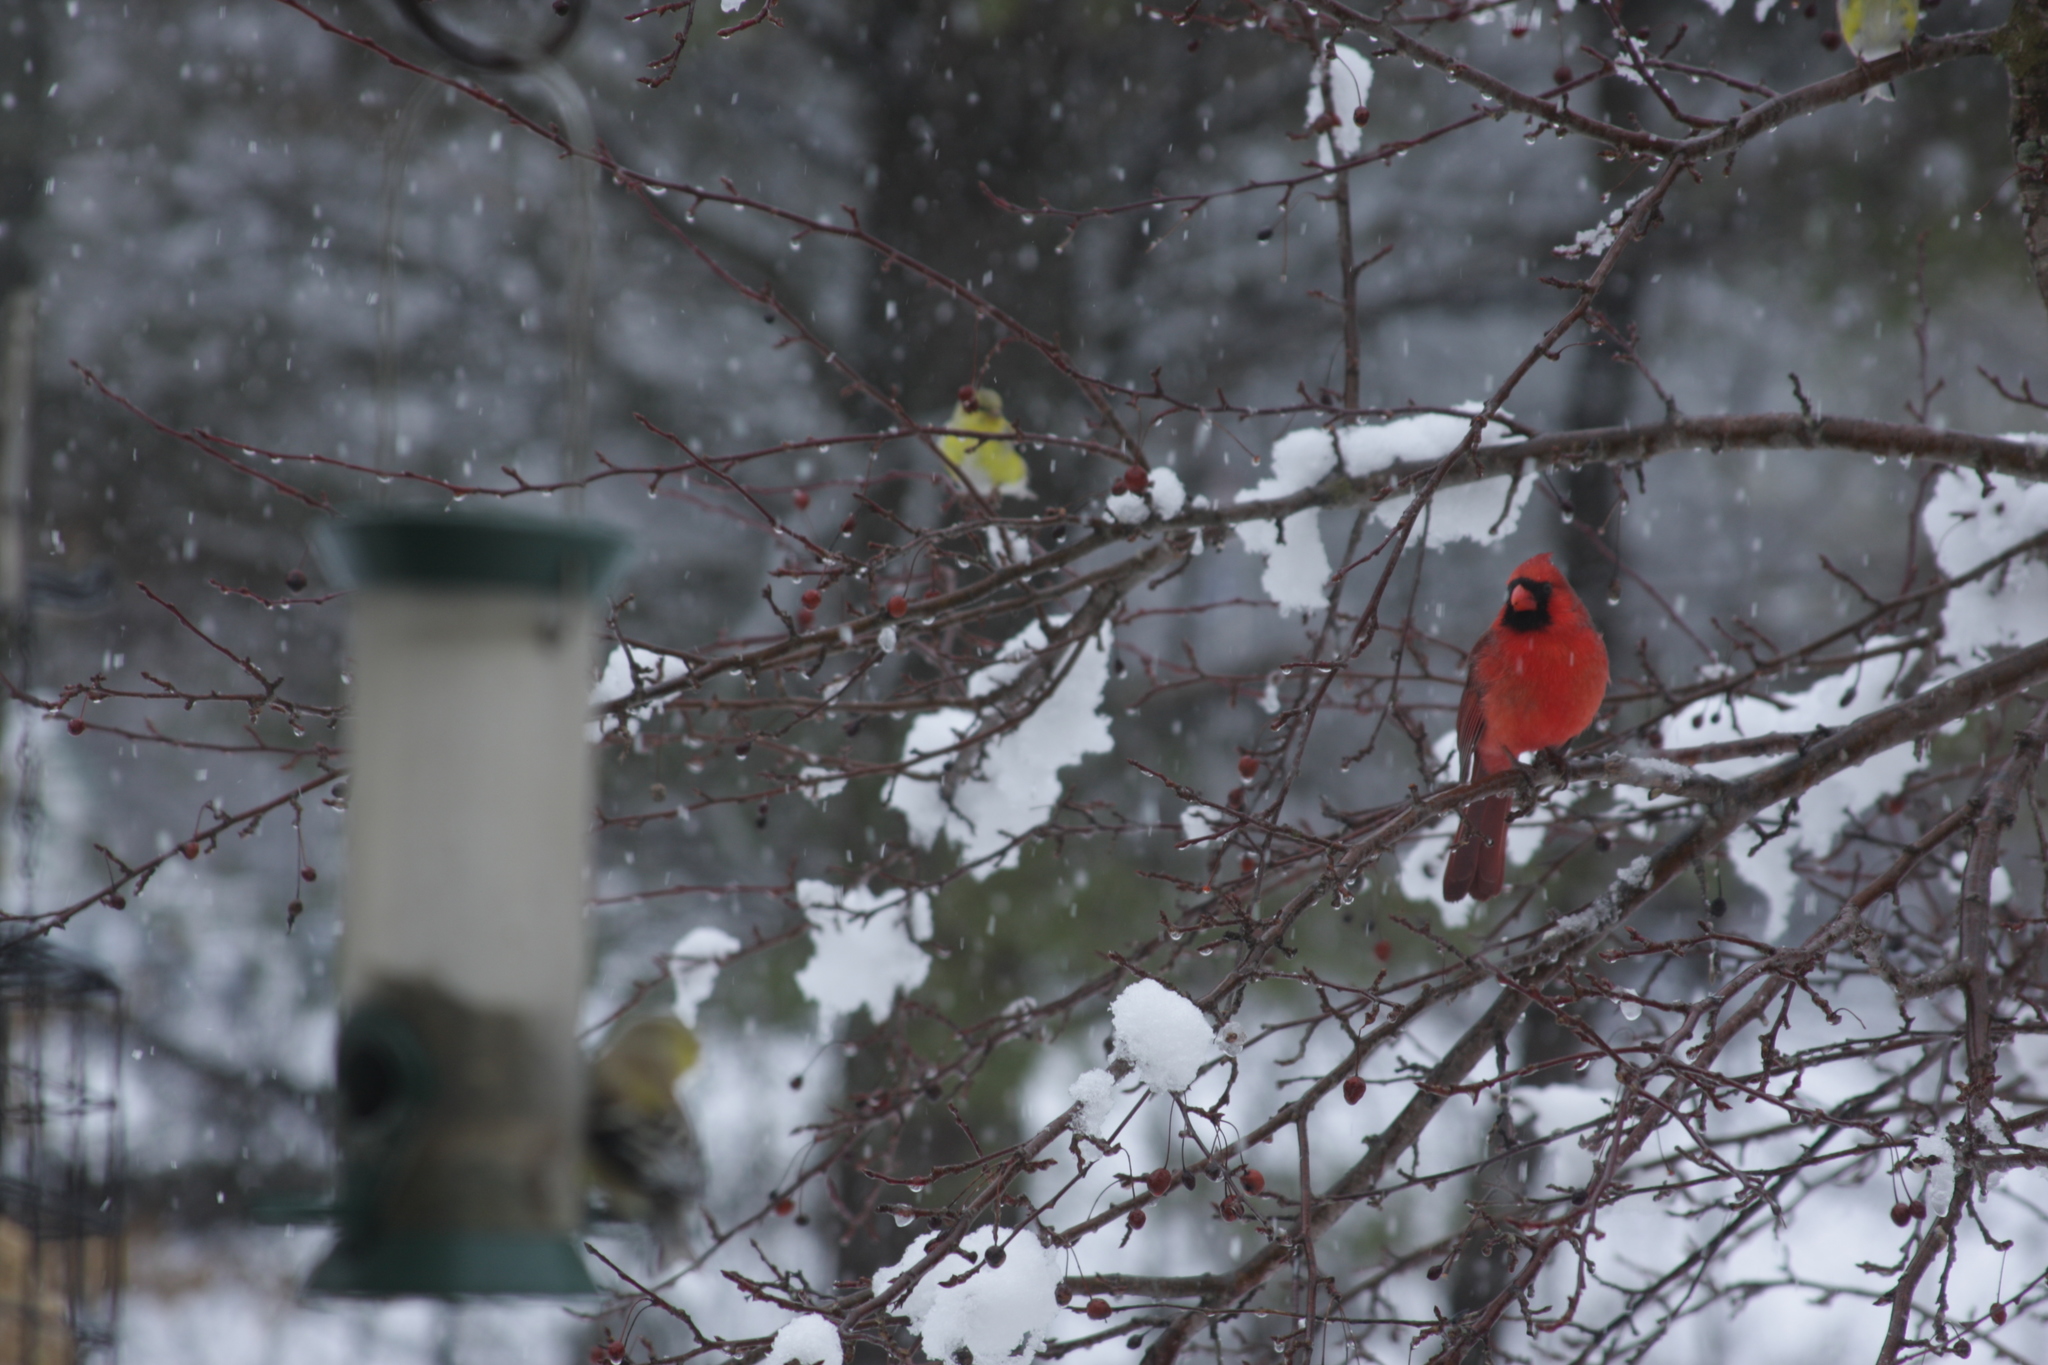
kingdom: Animalia
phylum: Chordata
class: Aves
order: Passeriformes
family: Cardinalidae
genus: Cardinalis
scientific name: Cardinalis cardinalis
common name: Northern cardinal
